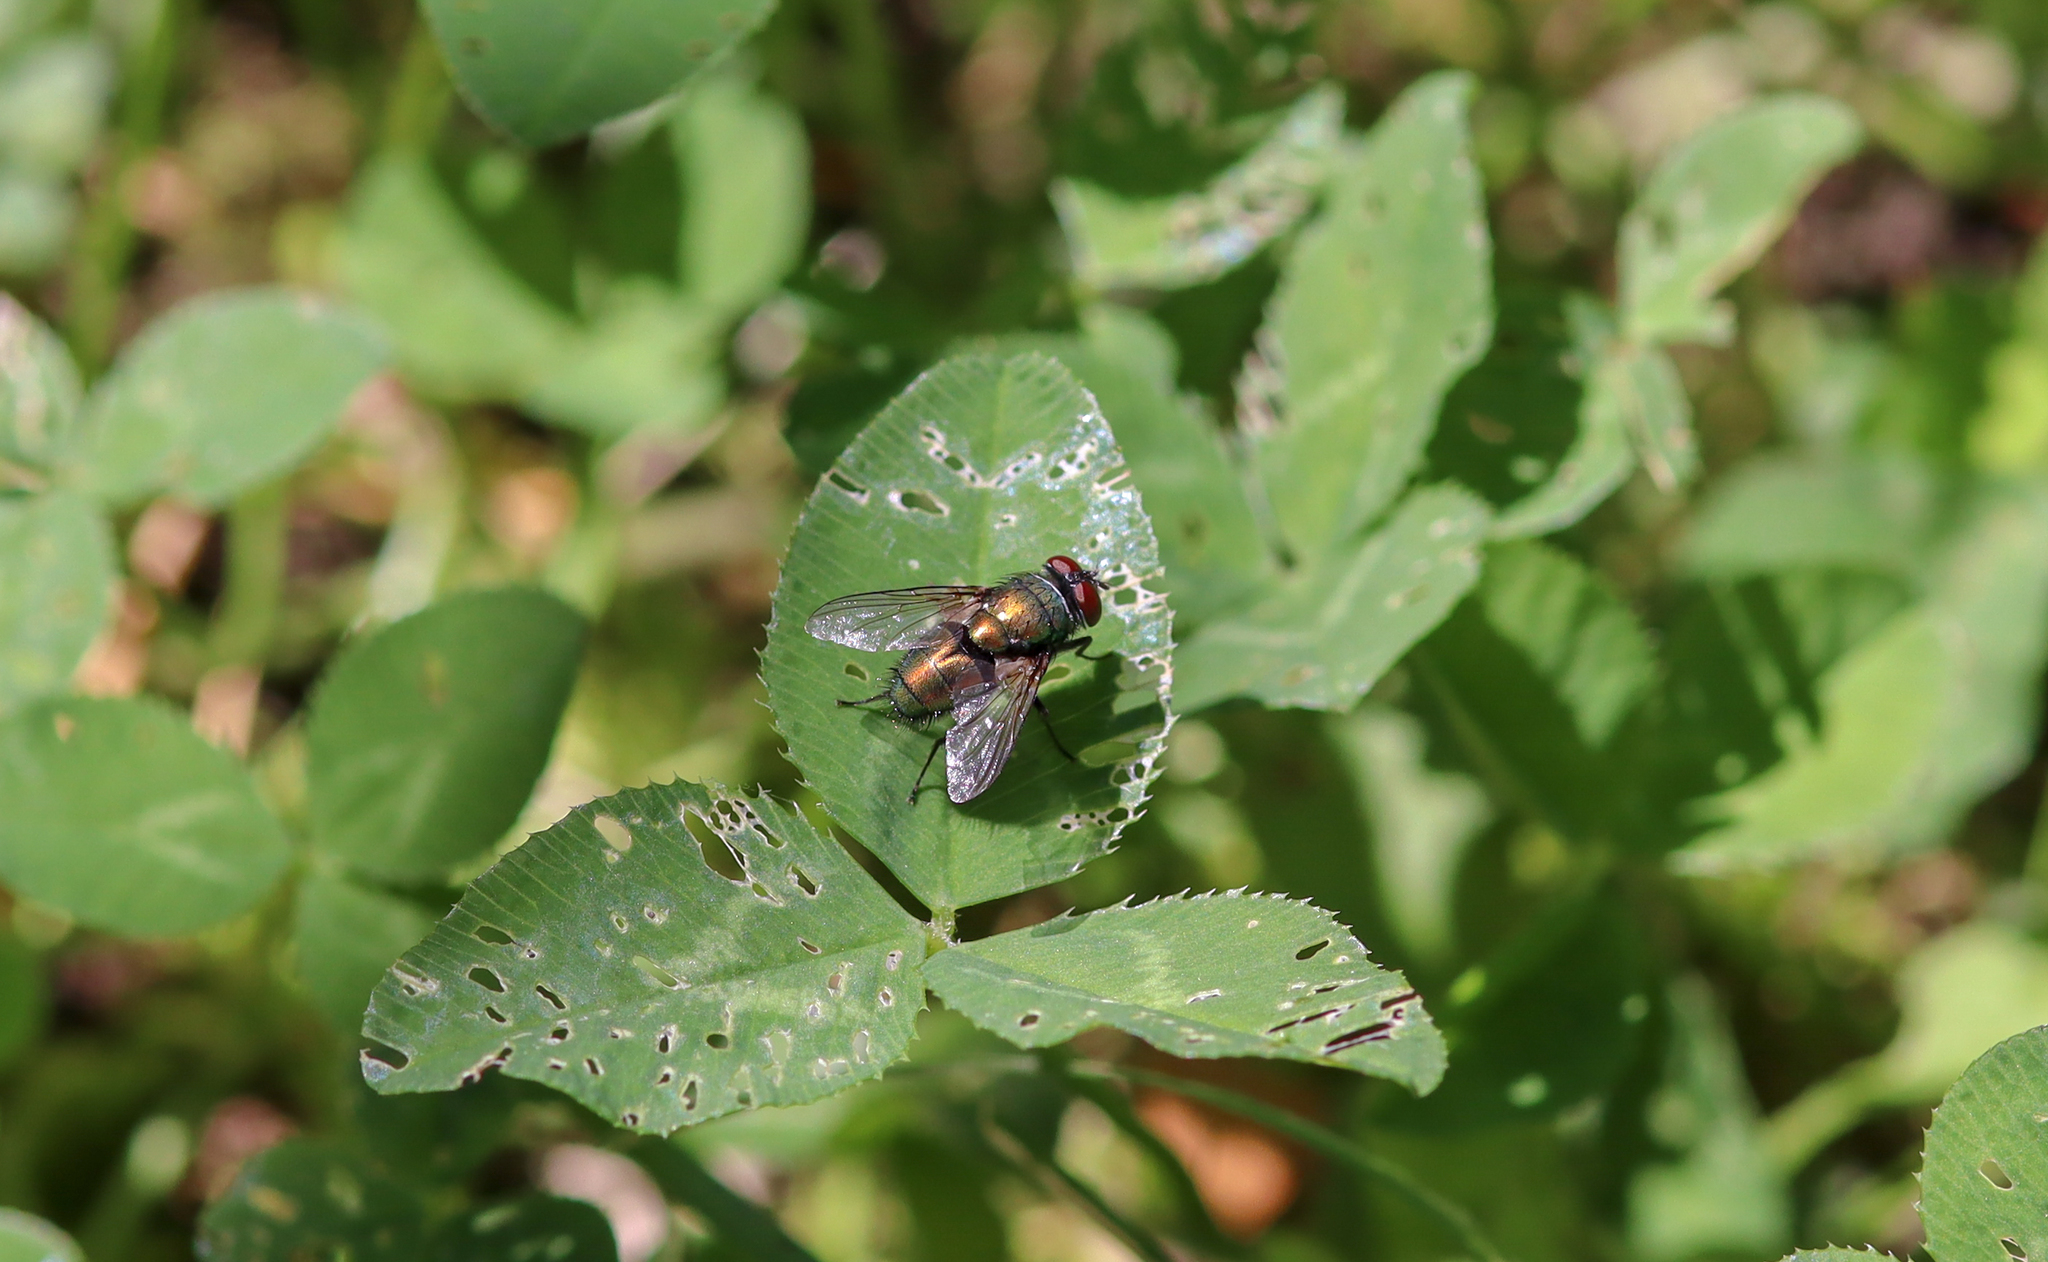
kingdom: Animalia
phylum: Arthropoda
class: Insecta
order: Diptera
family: Calliphoridae
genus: Lucilia
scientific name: Lucilia sericata
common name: Blow fly
